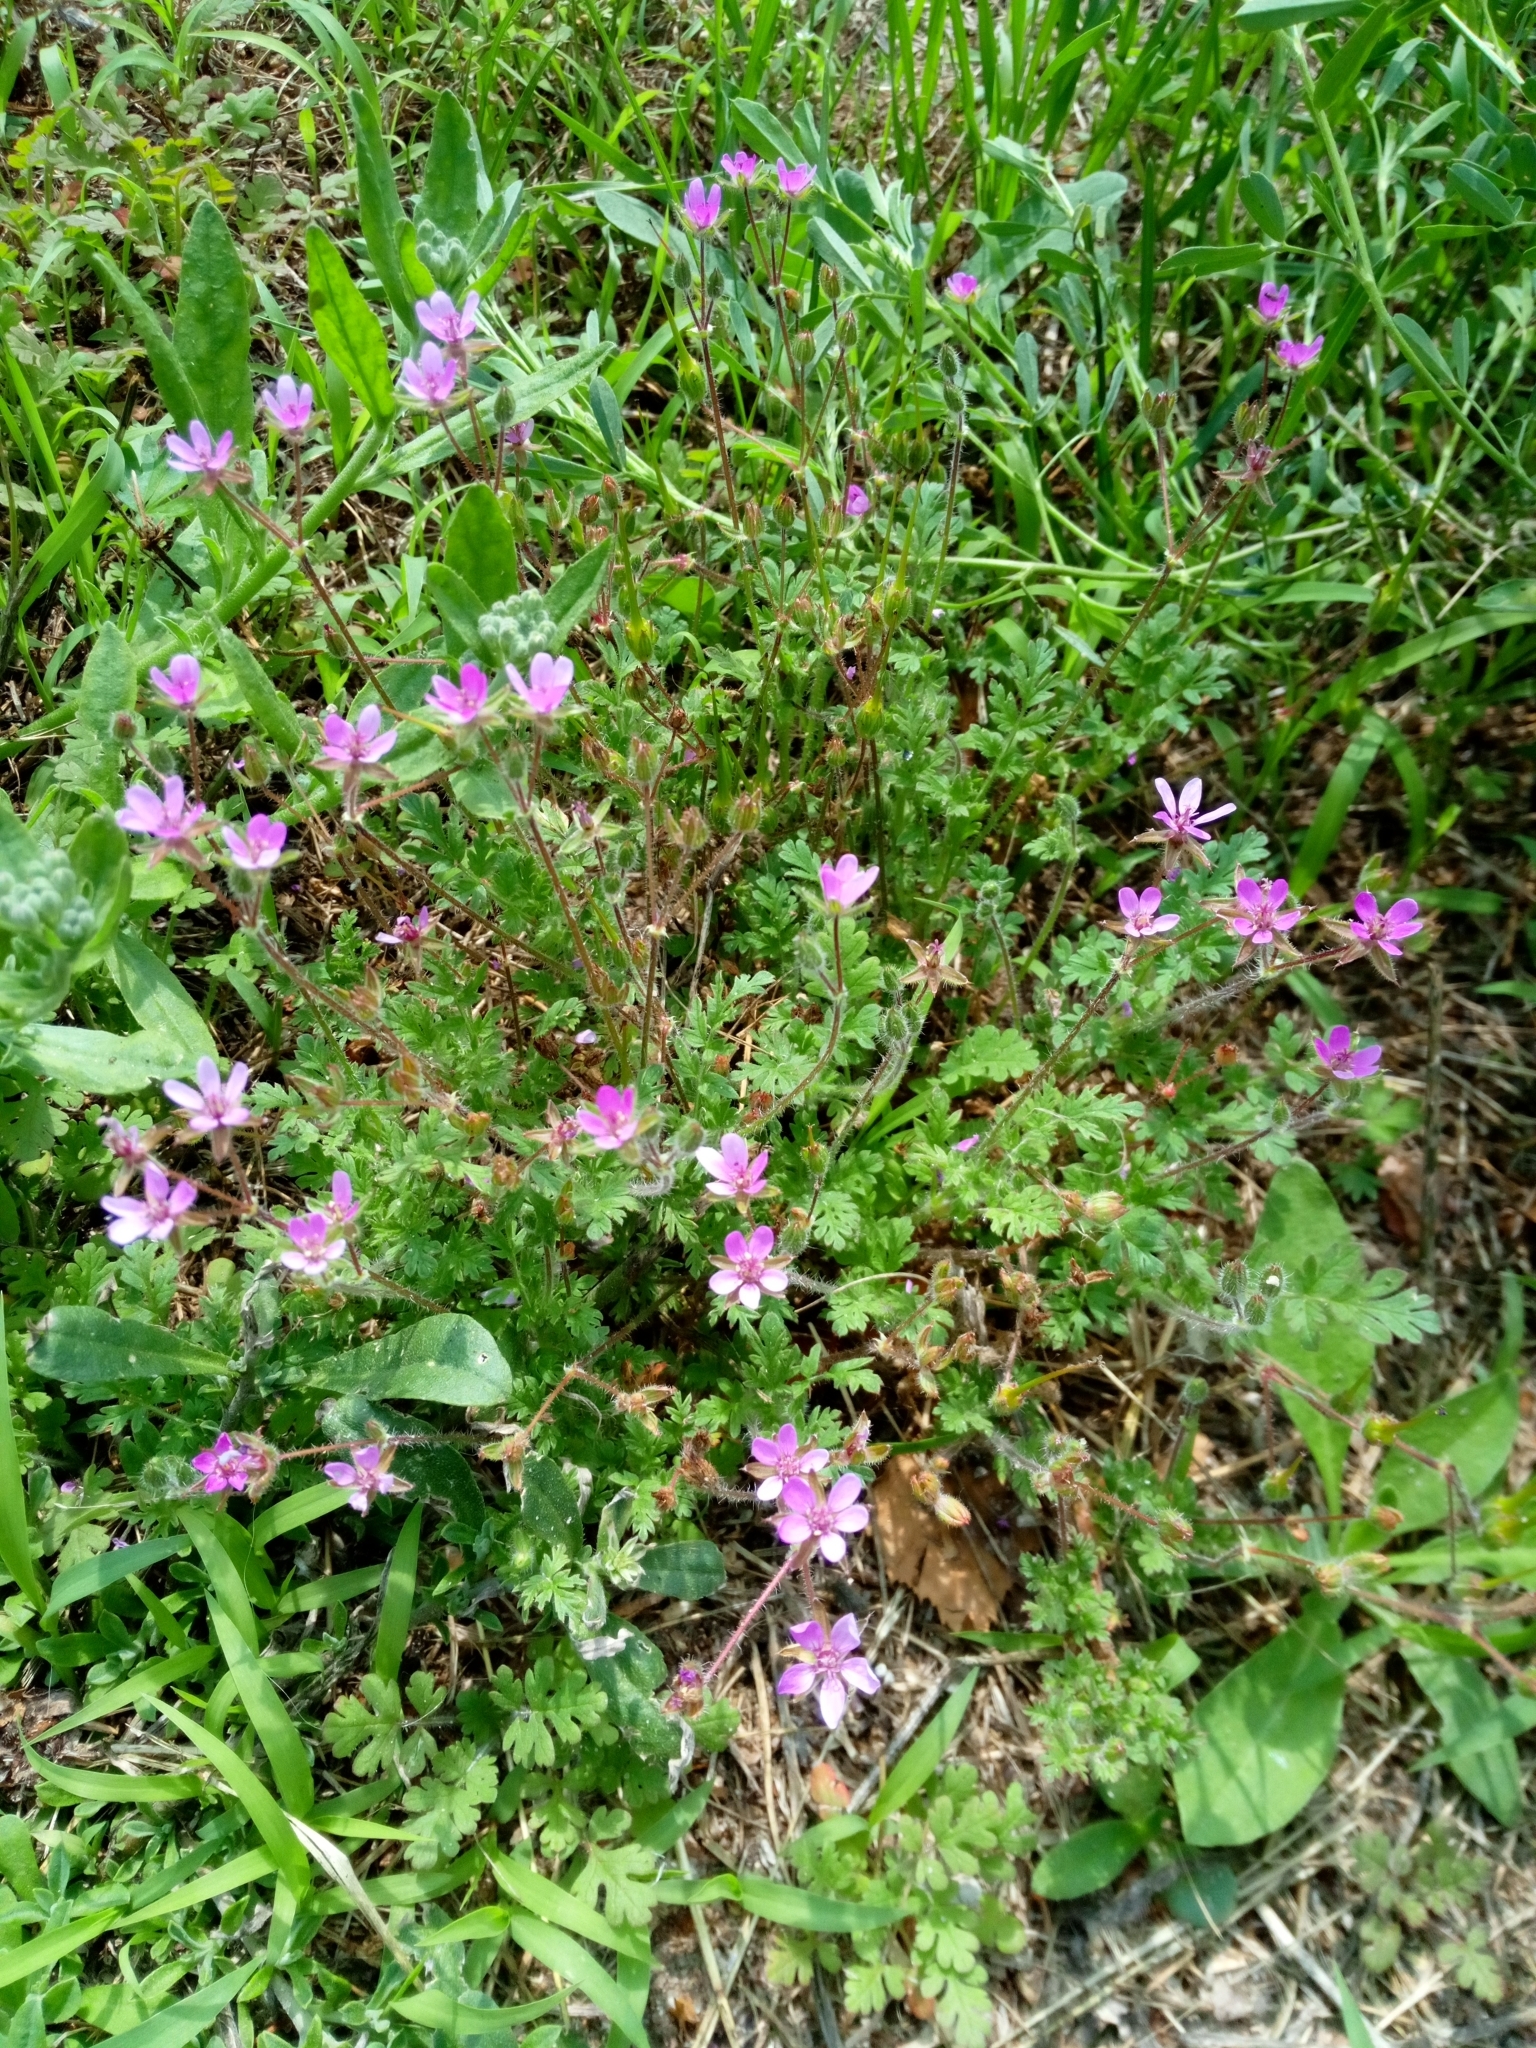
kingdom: Plantae
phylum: Tracheophyta
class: Magnoliopsida
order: Geraniales
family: Geraniaceae
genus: Erodium
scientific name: Erodium cicutarium
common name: Common stork's-bill
